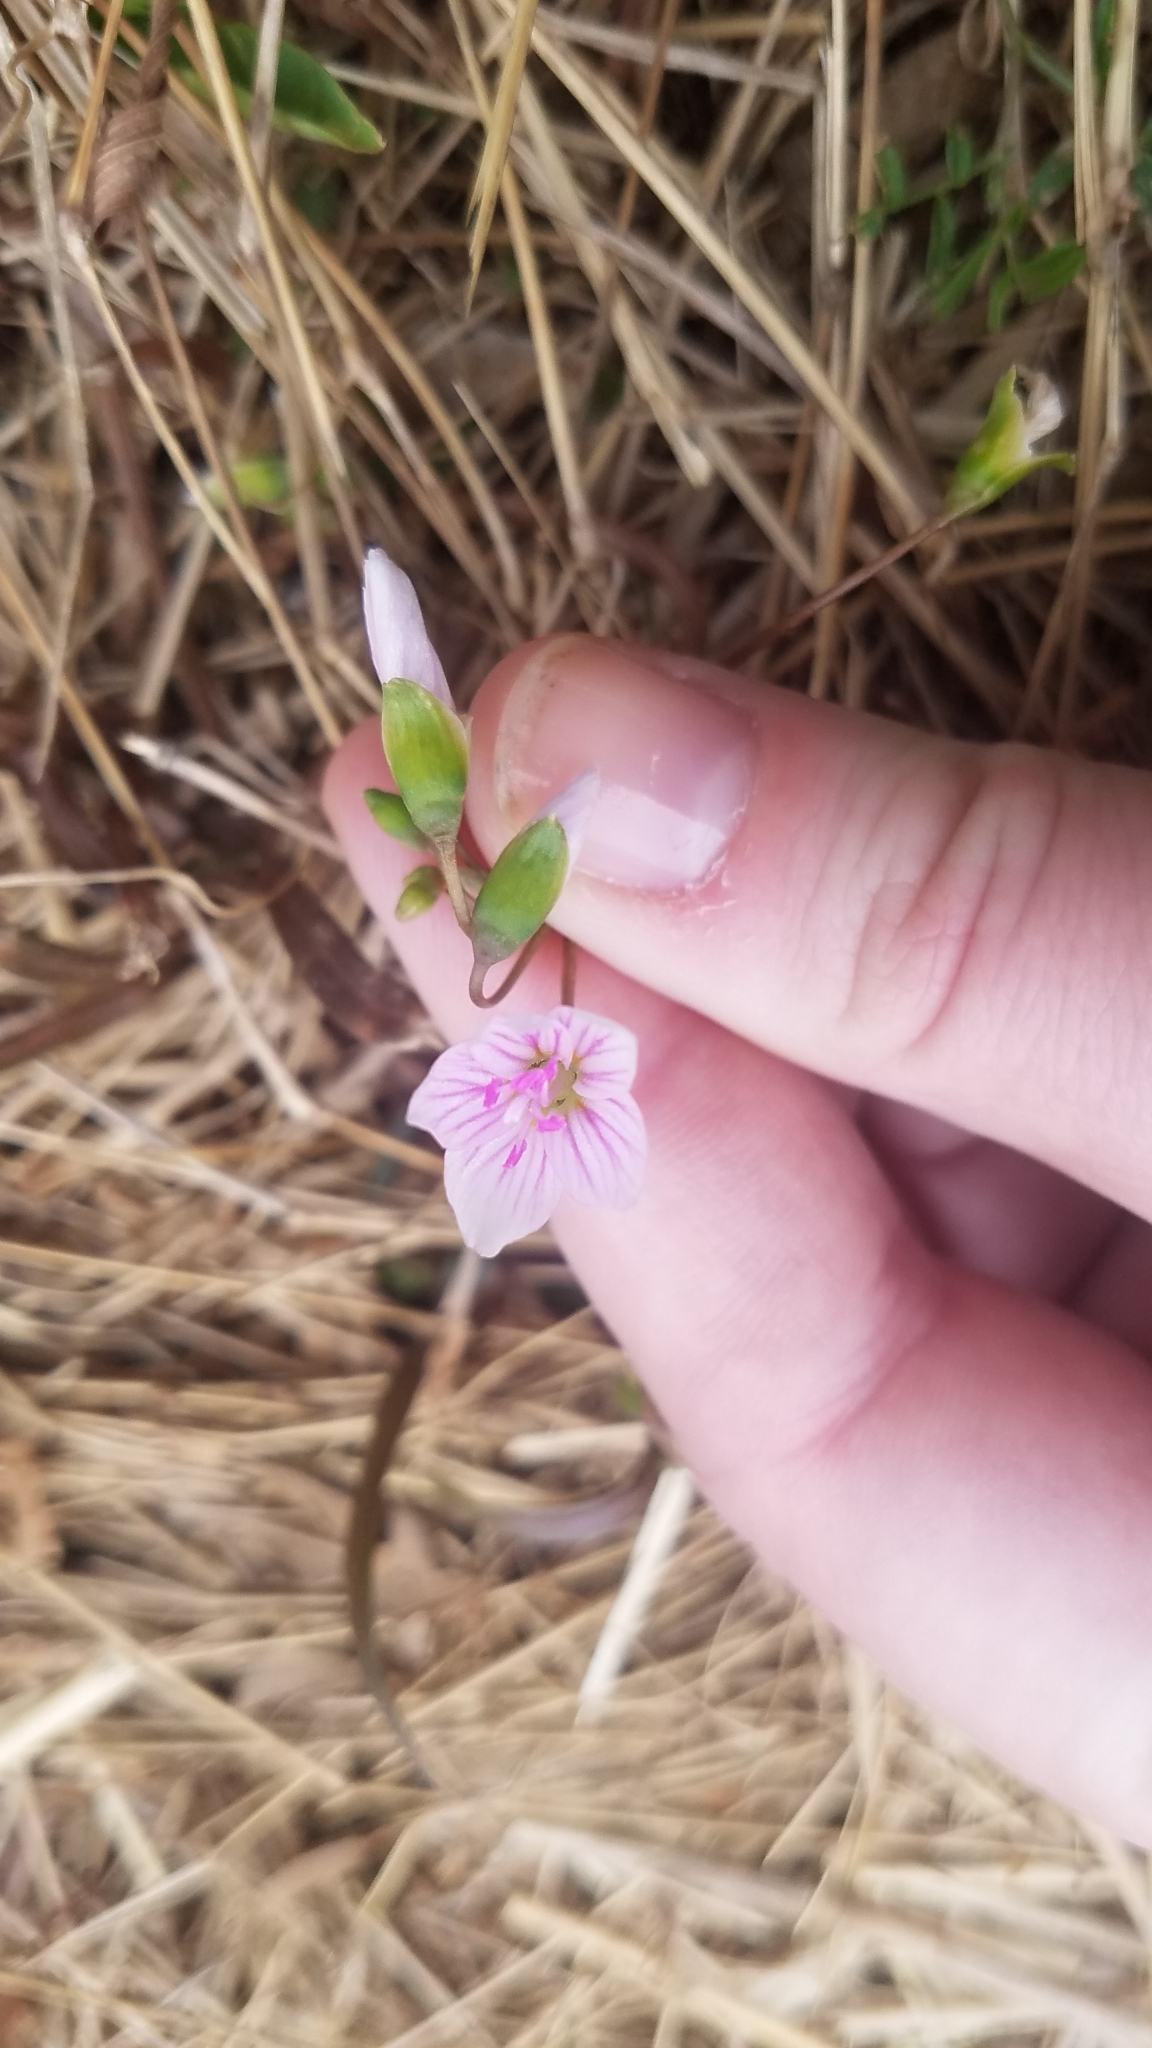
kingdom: Plantae
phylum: Tracheophyta
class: Magnoliopsida
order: Caryophyllales
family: Montiaceae
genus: Claytonia
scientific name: Claytonia virginica
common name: Virginia springbeauty
